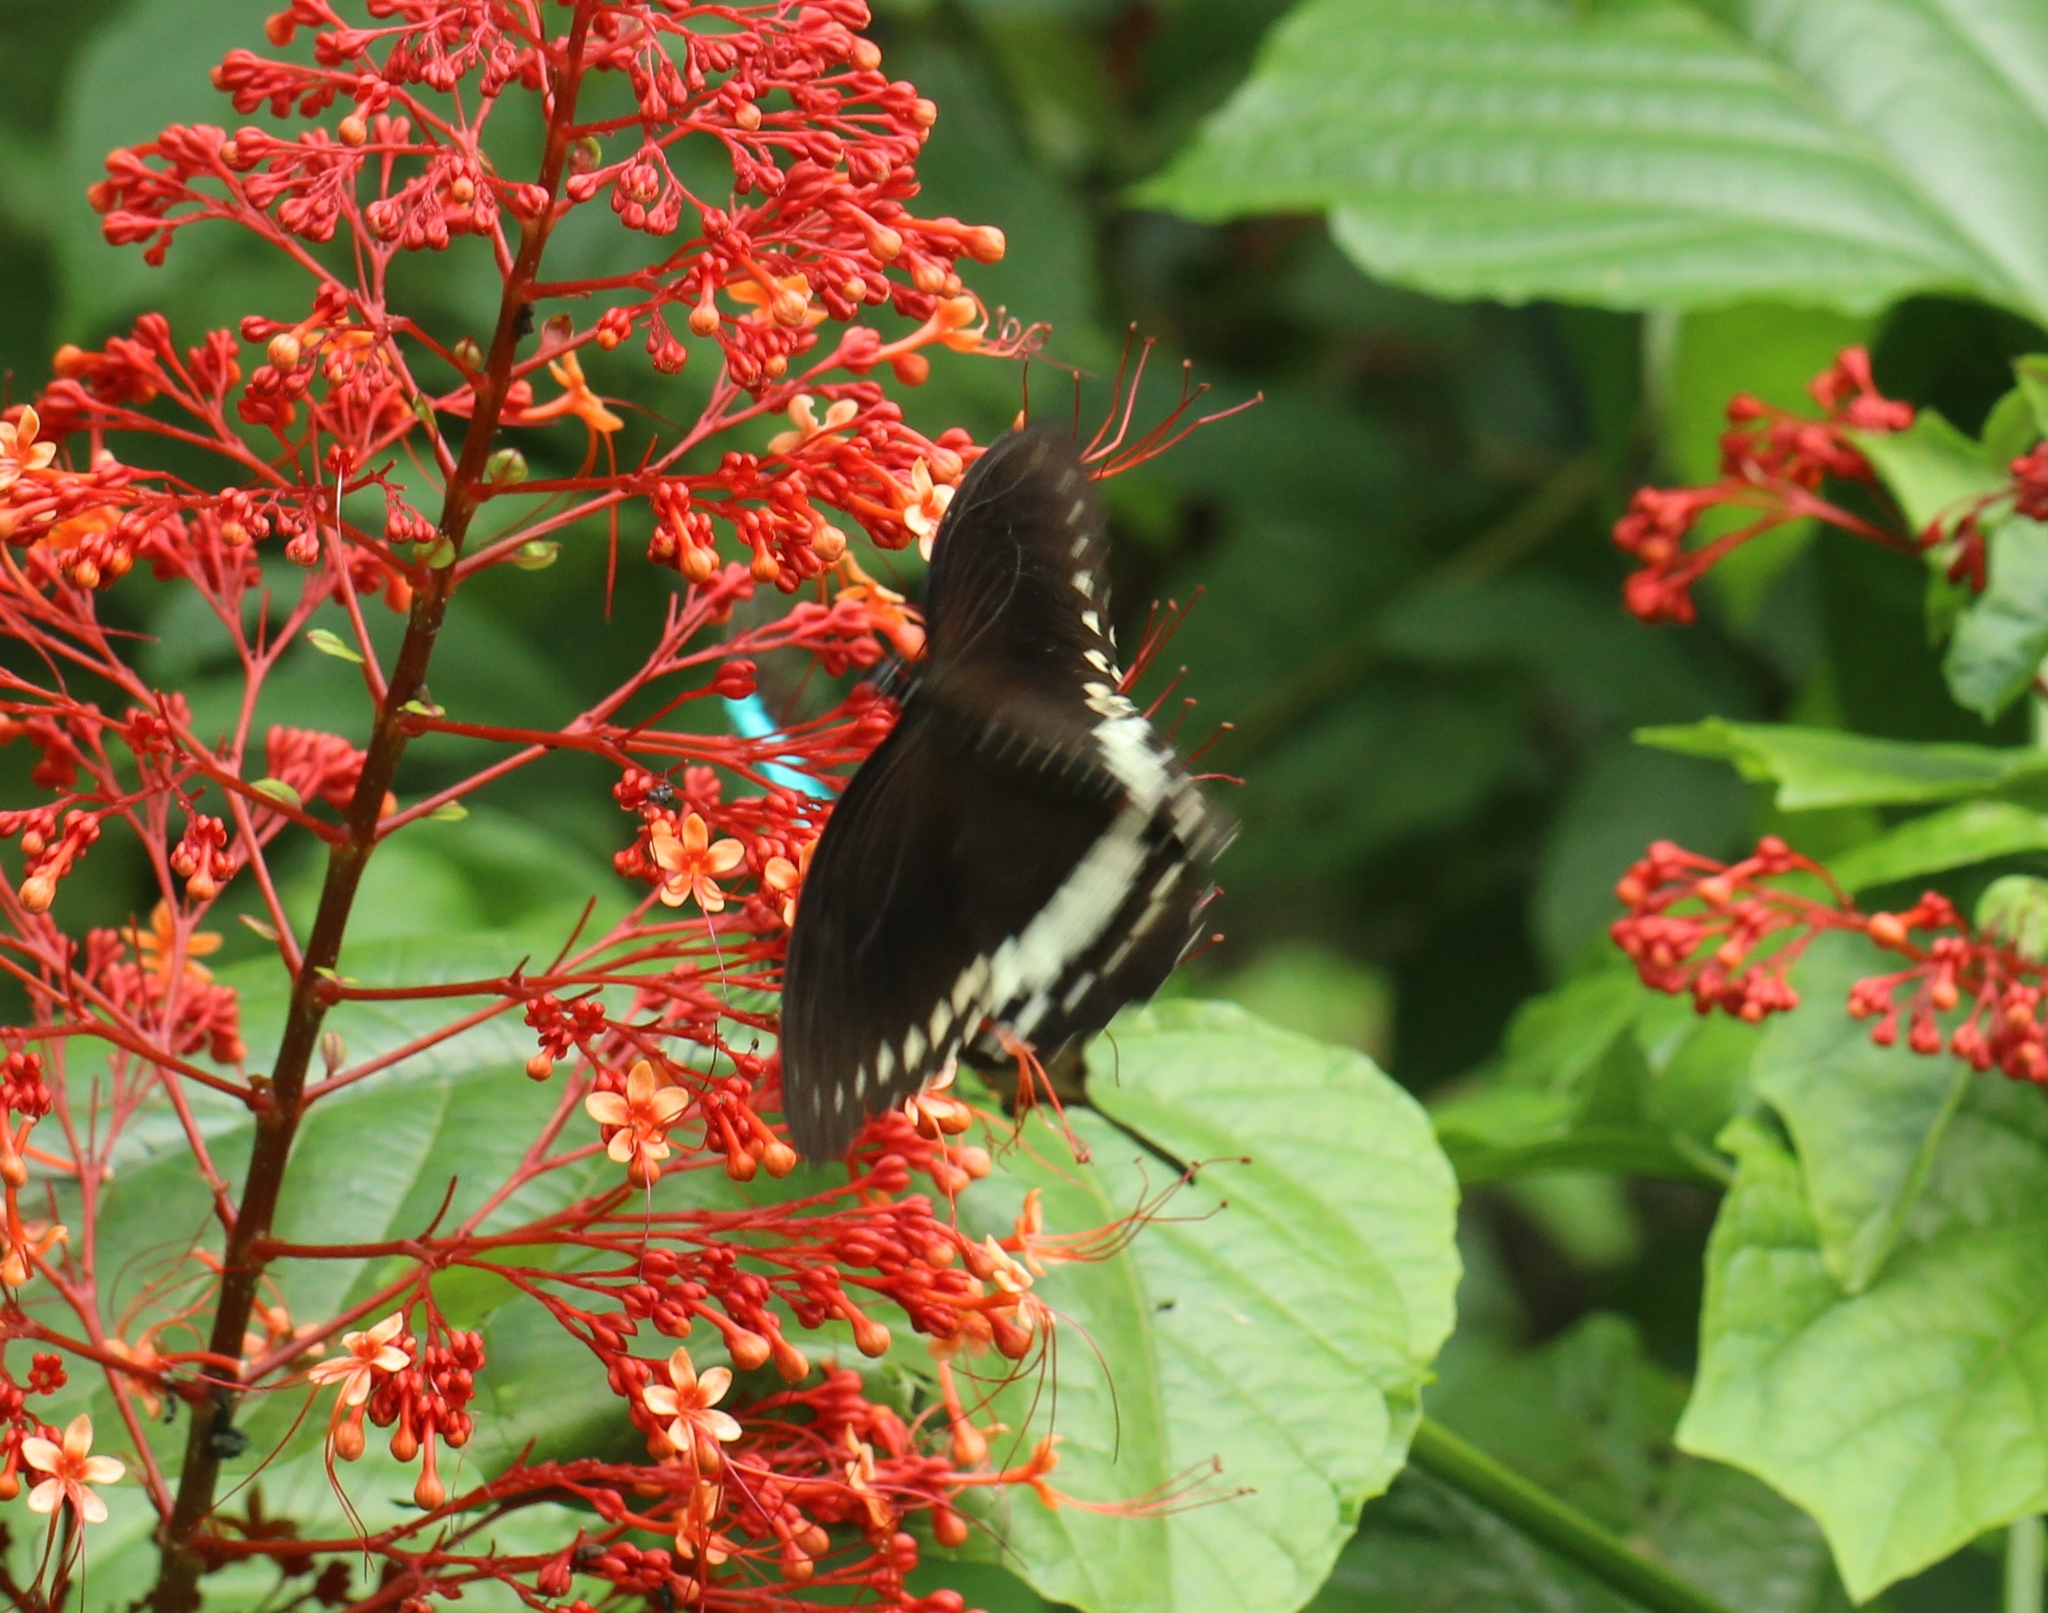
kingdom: Animalia
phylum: Arthropoda
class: Insecta
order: Lepidoptera
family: Papilionidae
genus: Papilio
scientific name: Papilio liomedon
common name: Malabar banded swallowtail
